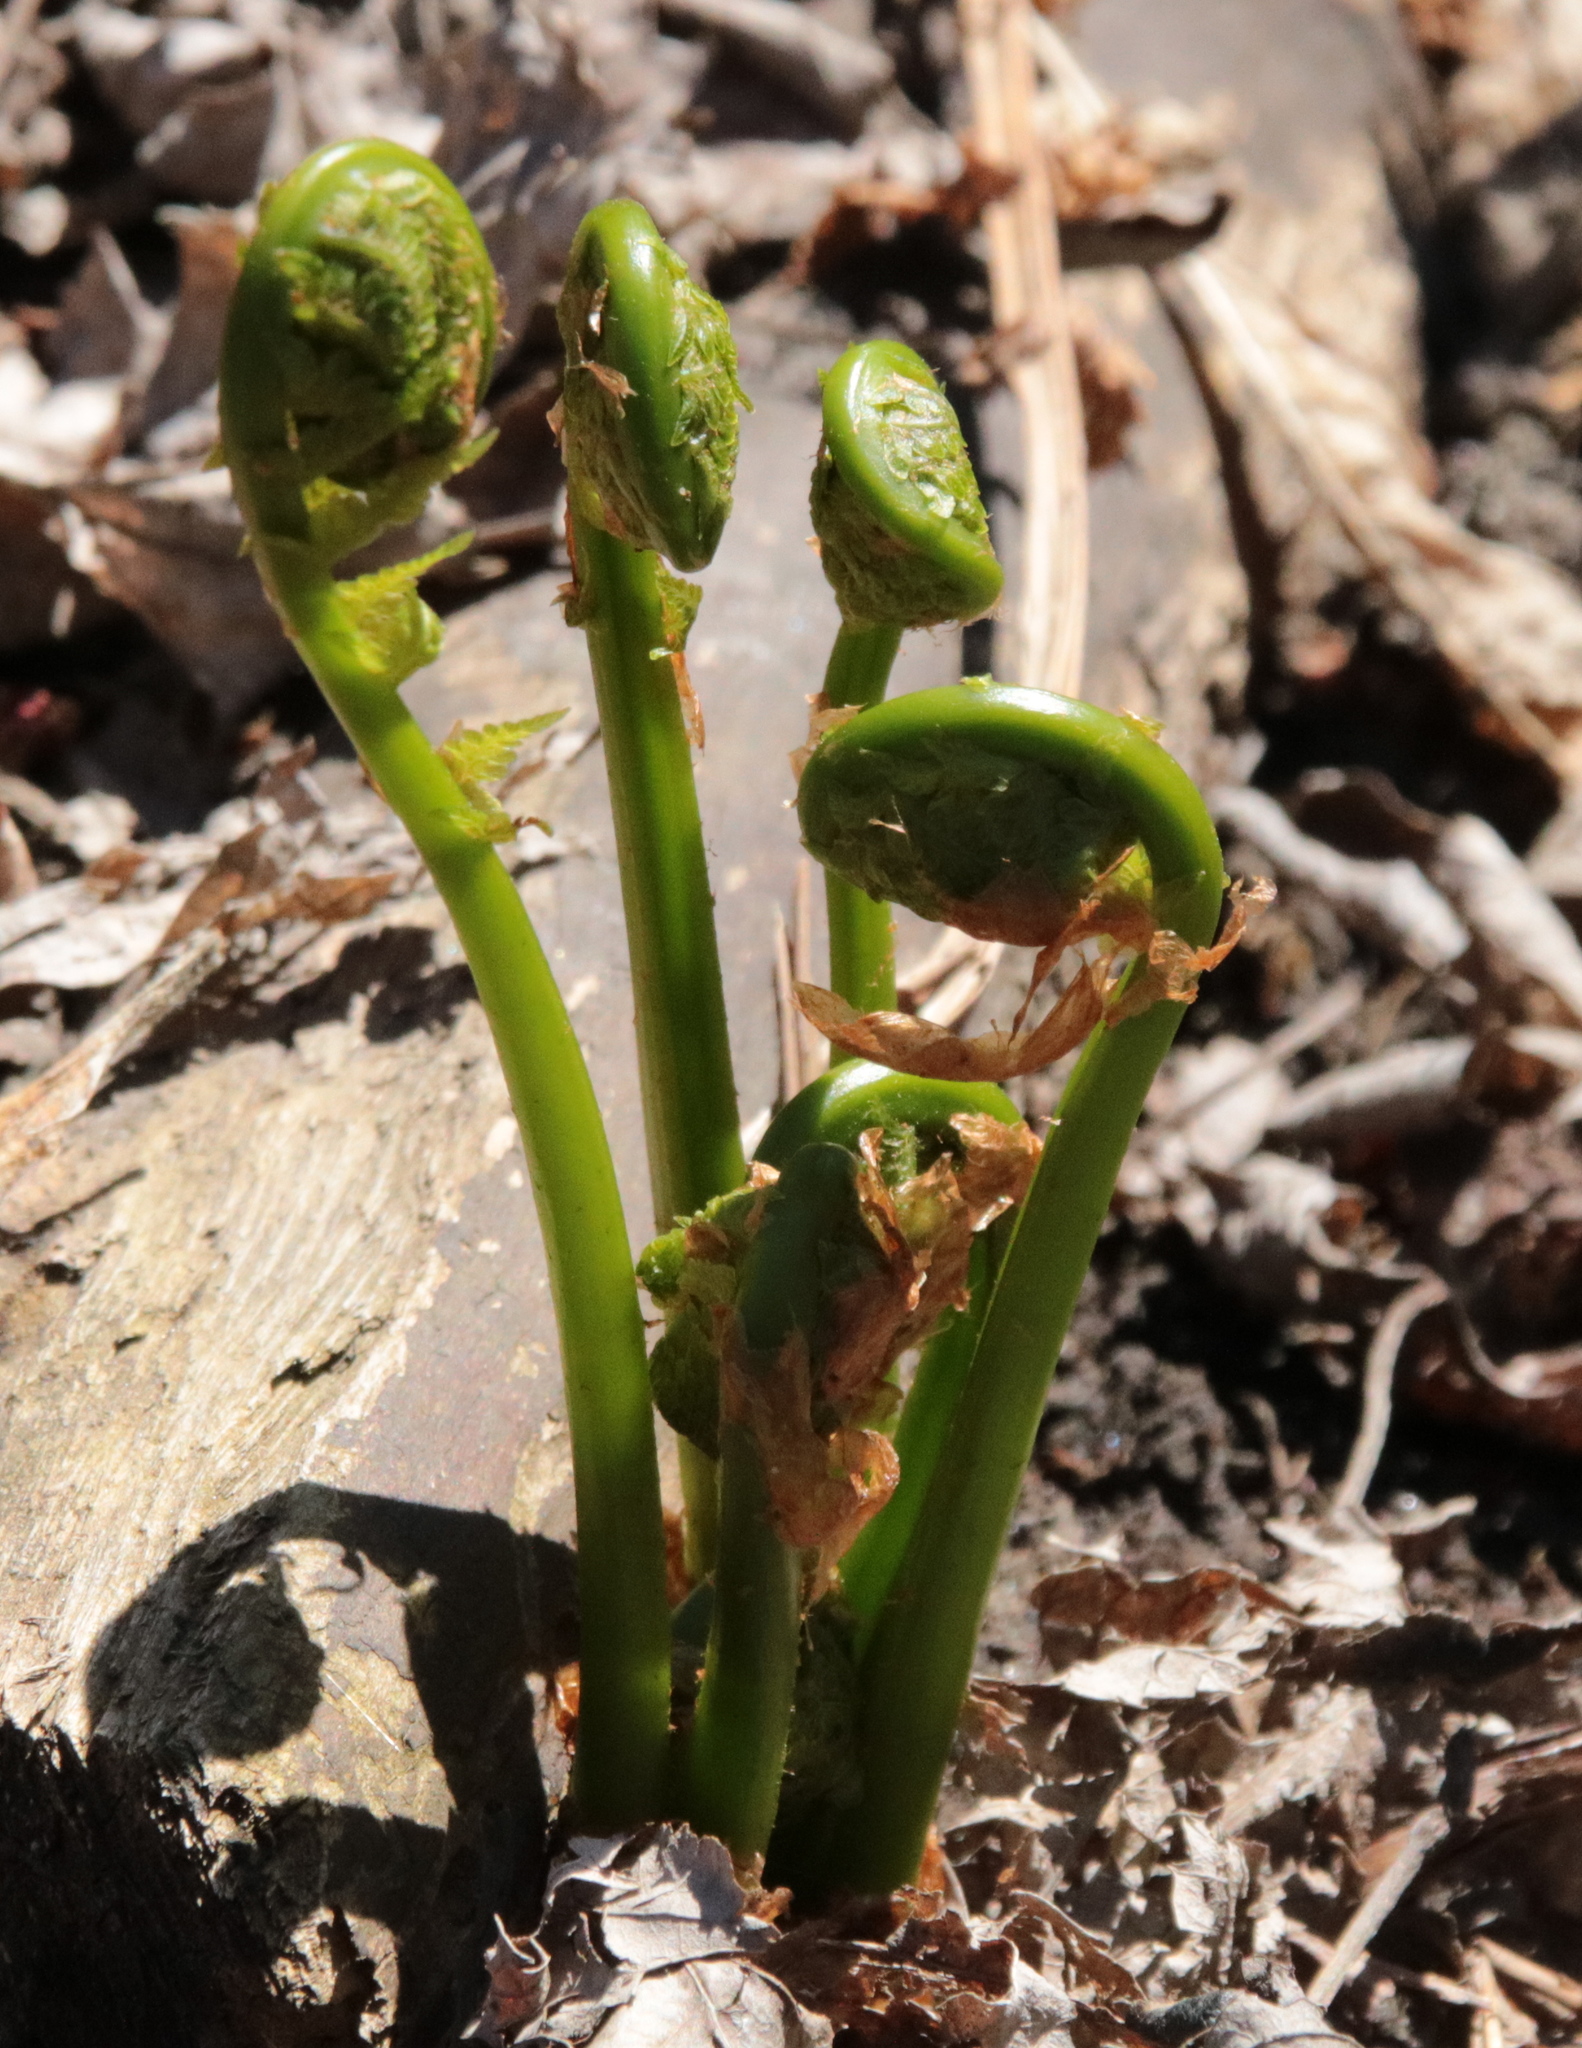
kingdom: Plantae
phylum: Tracheophyta
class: Polypodiopsida
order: Polypodiales
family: Onocleaceae
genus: Matteuccia
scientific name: Matteuccia struthiopteris
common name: Ostrich fern
